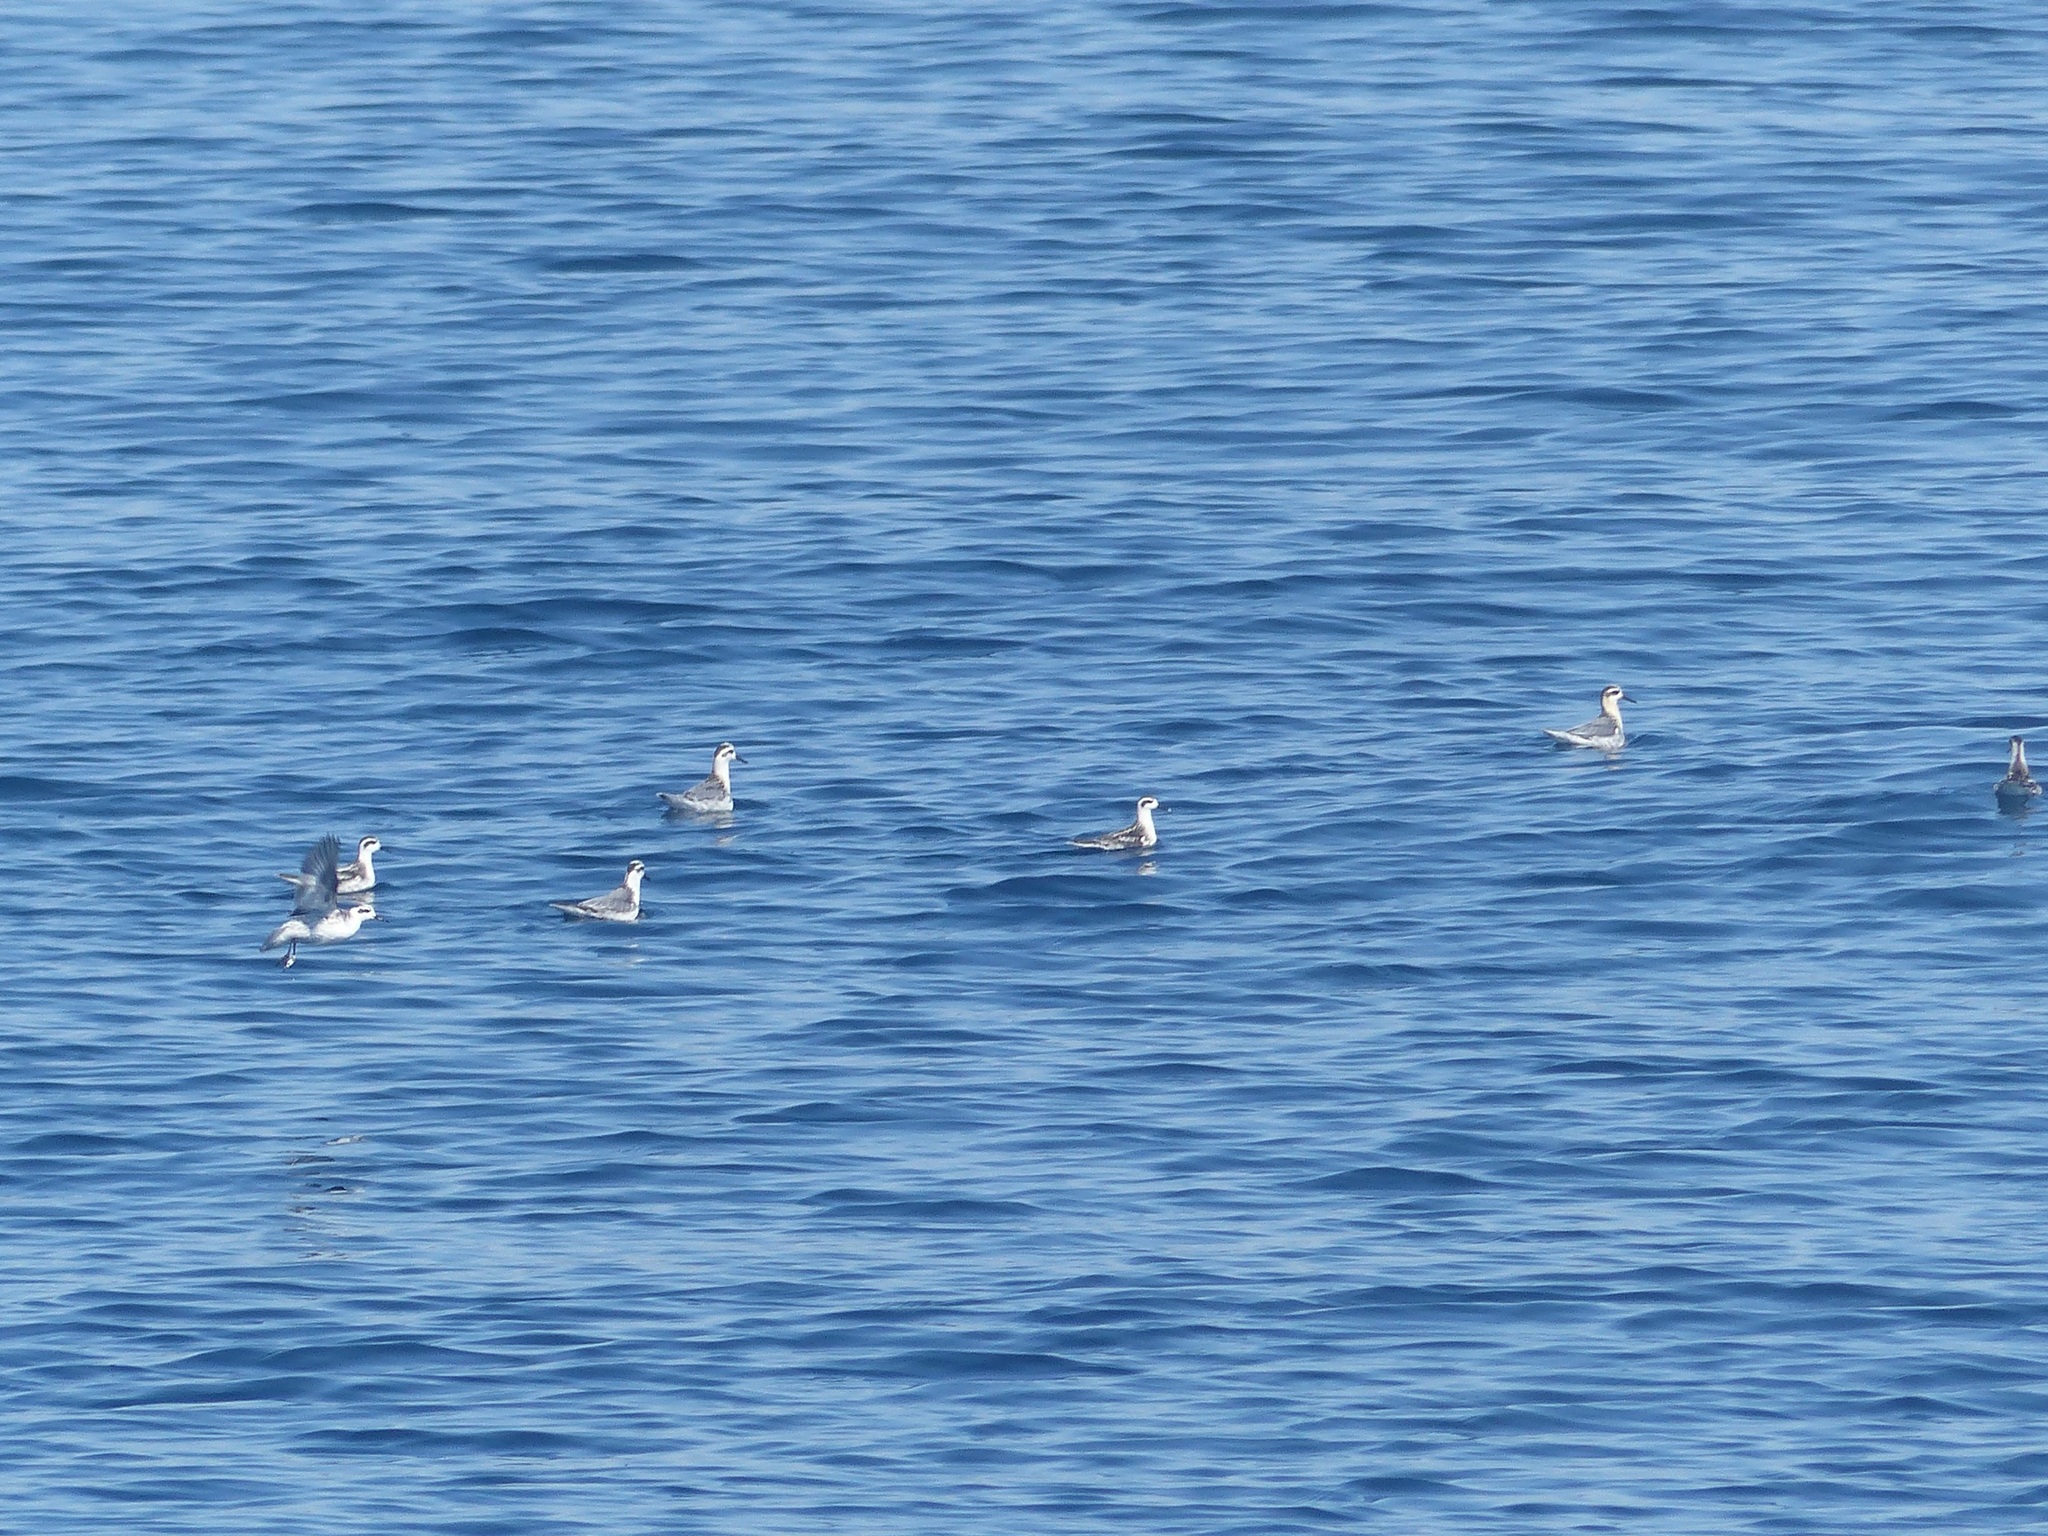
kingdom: Animalia
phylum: Chordata
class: Aves
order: Charadriiformes
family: Scolopacidae
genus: Phalaropus
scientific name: Phalaropus fulicarius
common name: Red phalarope
